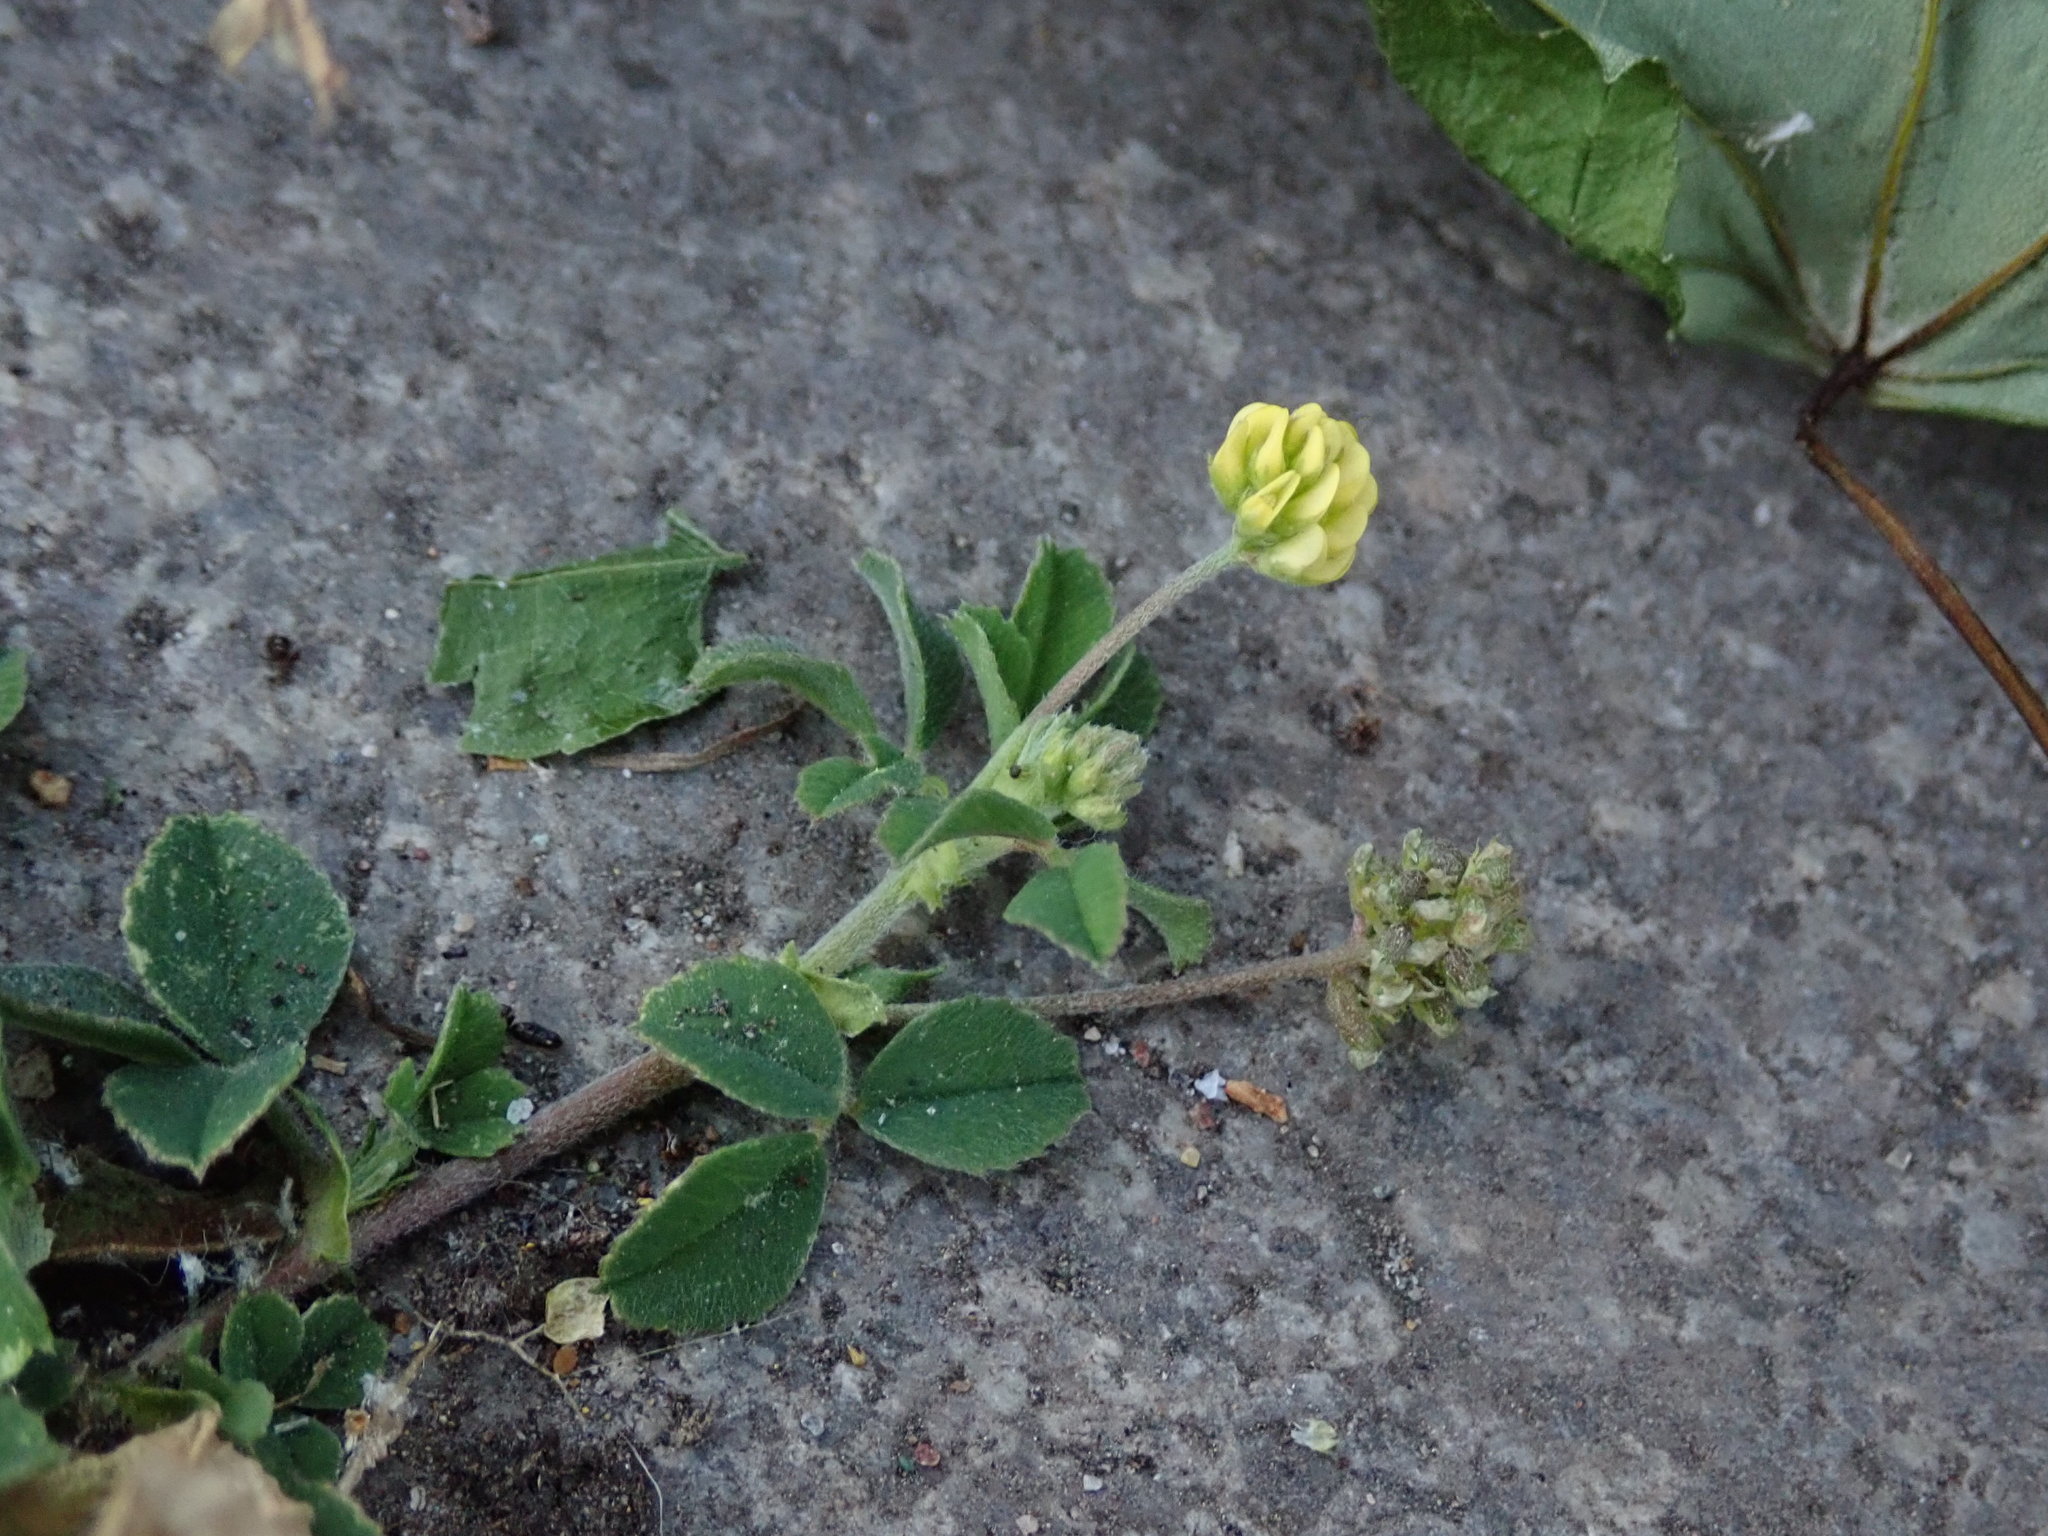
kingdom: Plantae
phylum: Tracheophyta
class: Magnoliopsida
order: Fabales
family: Fabaceae
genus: Medicago
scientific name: Medicago lupulina
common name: Black medick
